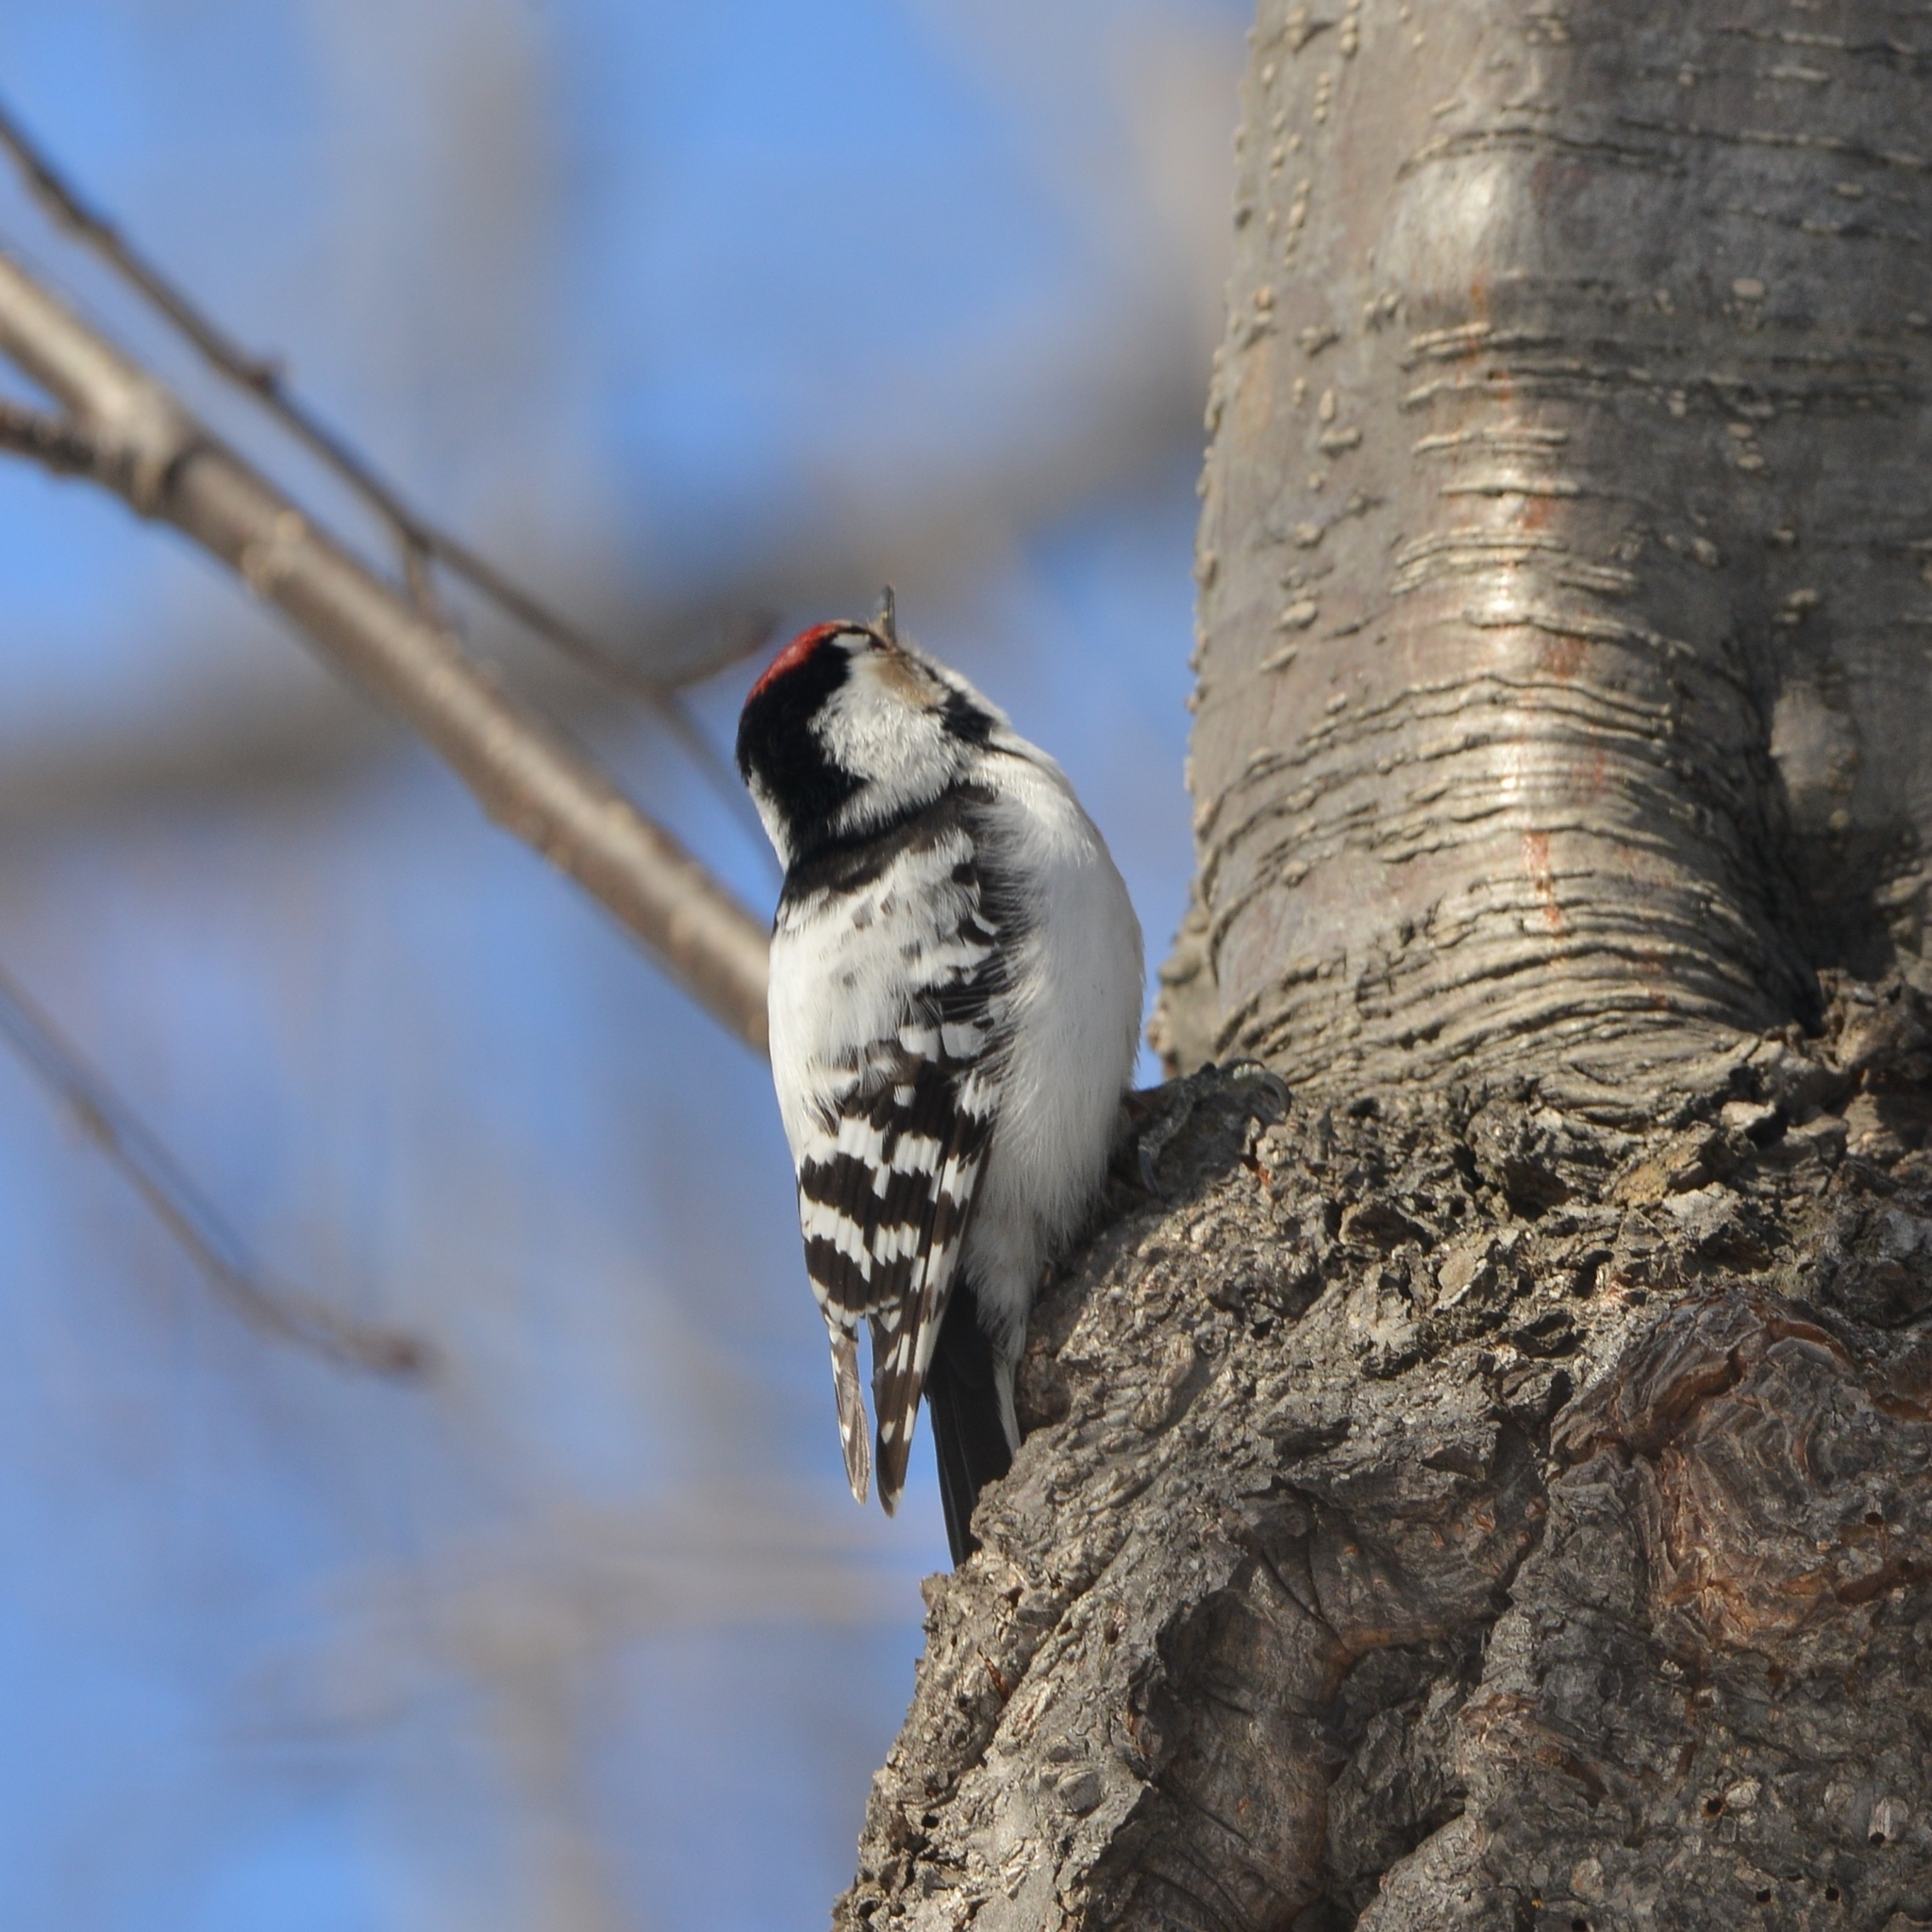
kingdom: Animalia
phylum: Chordata
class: Aves
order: Piciformes
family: Picidae
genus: Dryobates
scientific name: Dryobates minor
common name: Lesser spotted woodpecker
